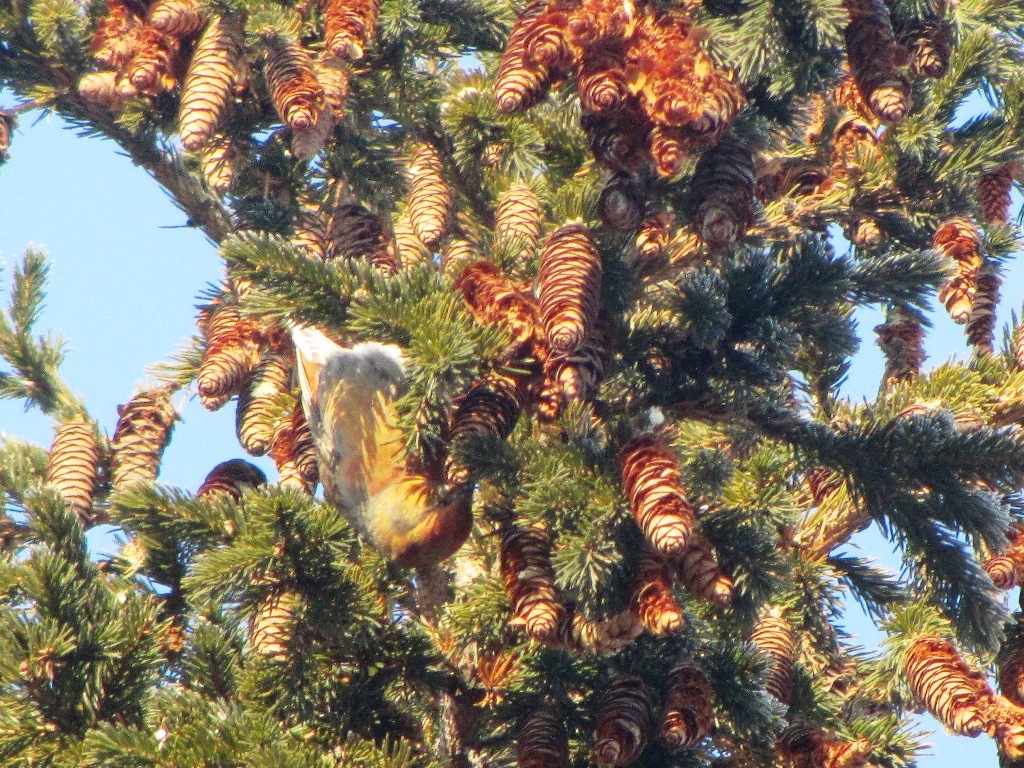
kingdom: Animalia
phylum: Chordata
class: Aves
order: Passeriformes
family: Fringillidae
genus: Loxia
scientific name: Loxia curvirostra
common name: Red crossbill
